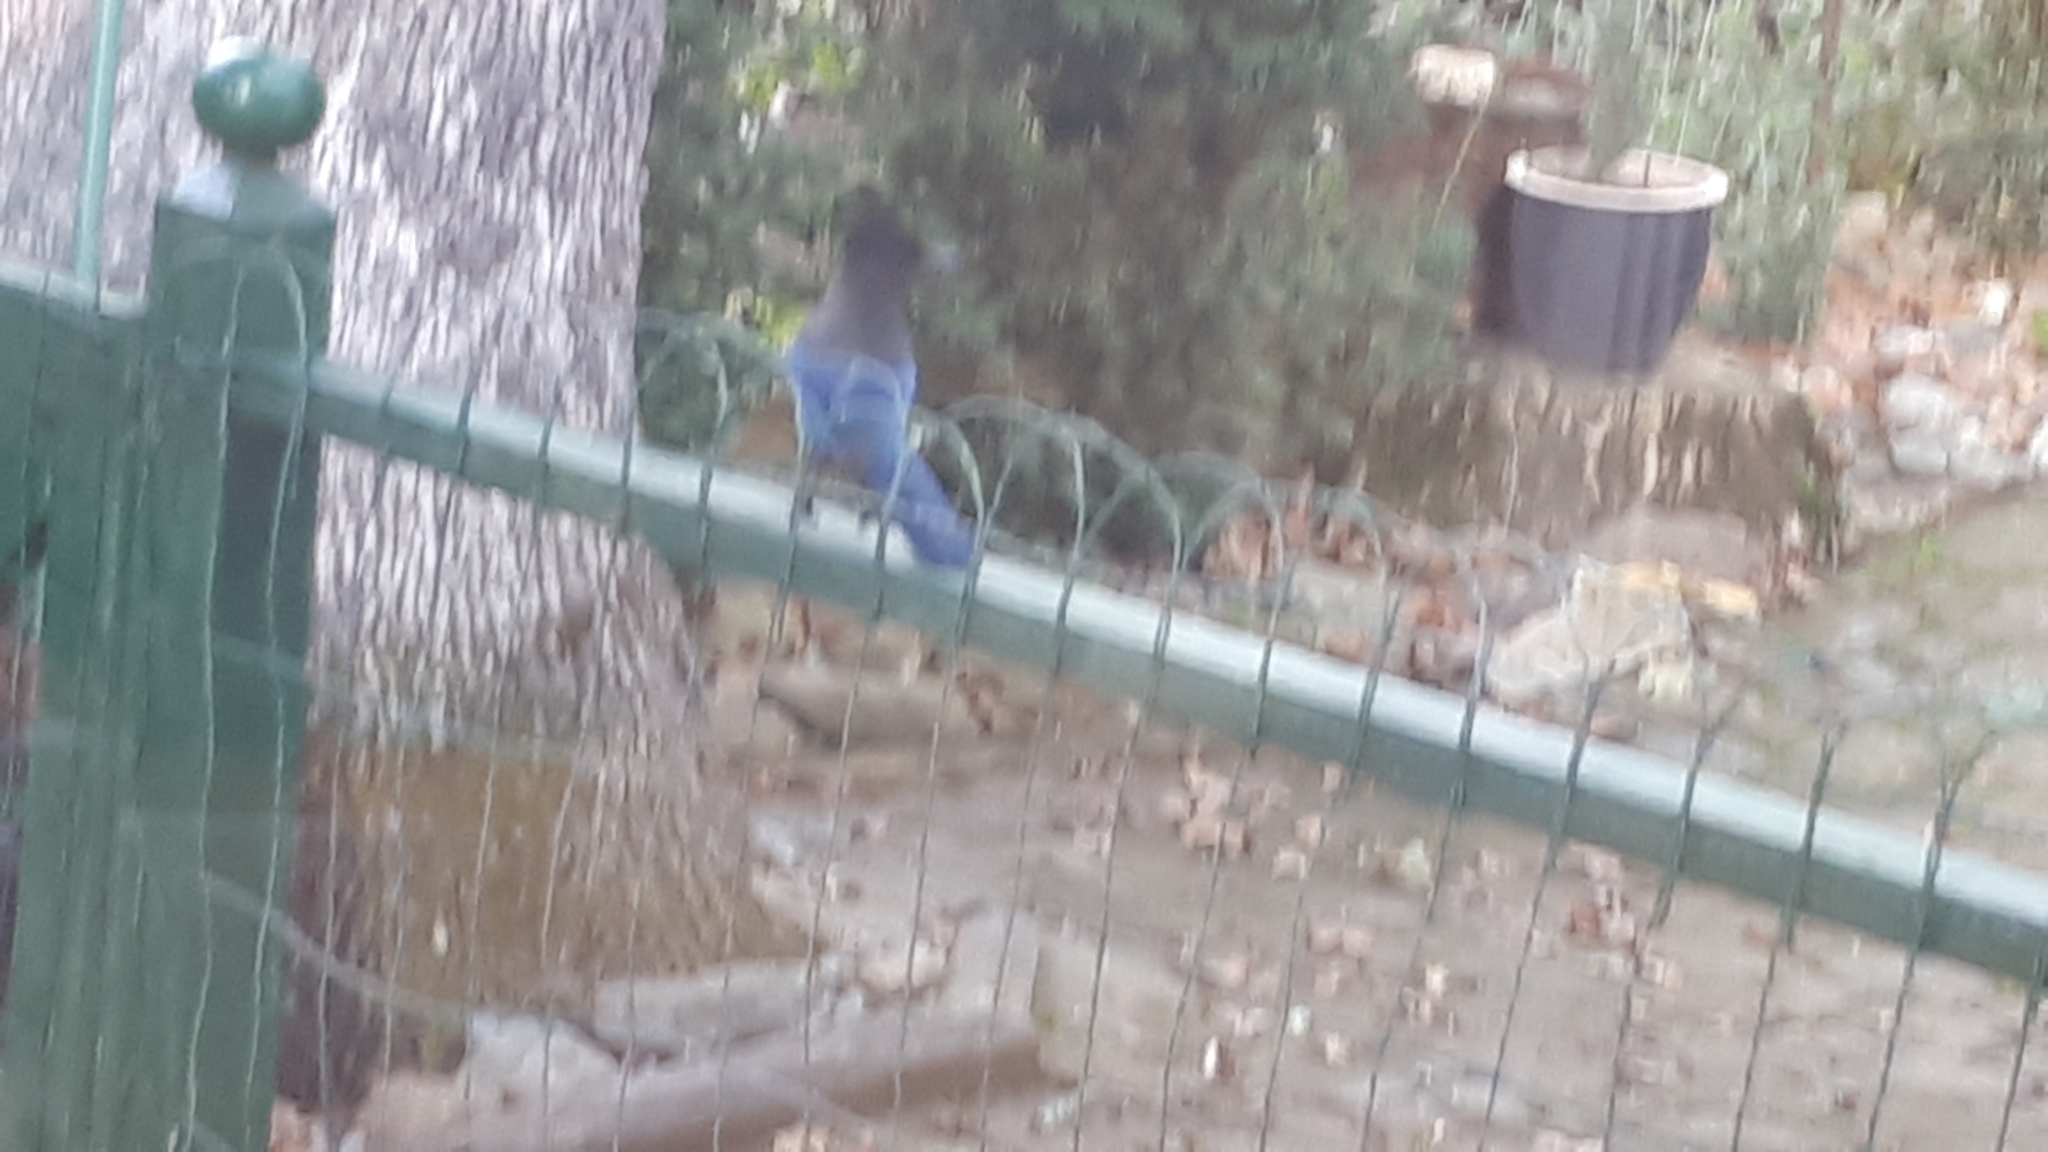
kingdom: Animalia
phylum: Chordata
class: Aves
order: Passeriformes
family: Corvidae
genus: Cyanocitta
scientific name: Cyanocitta stelleri
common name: Steller's jay
